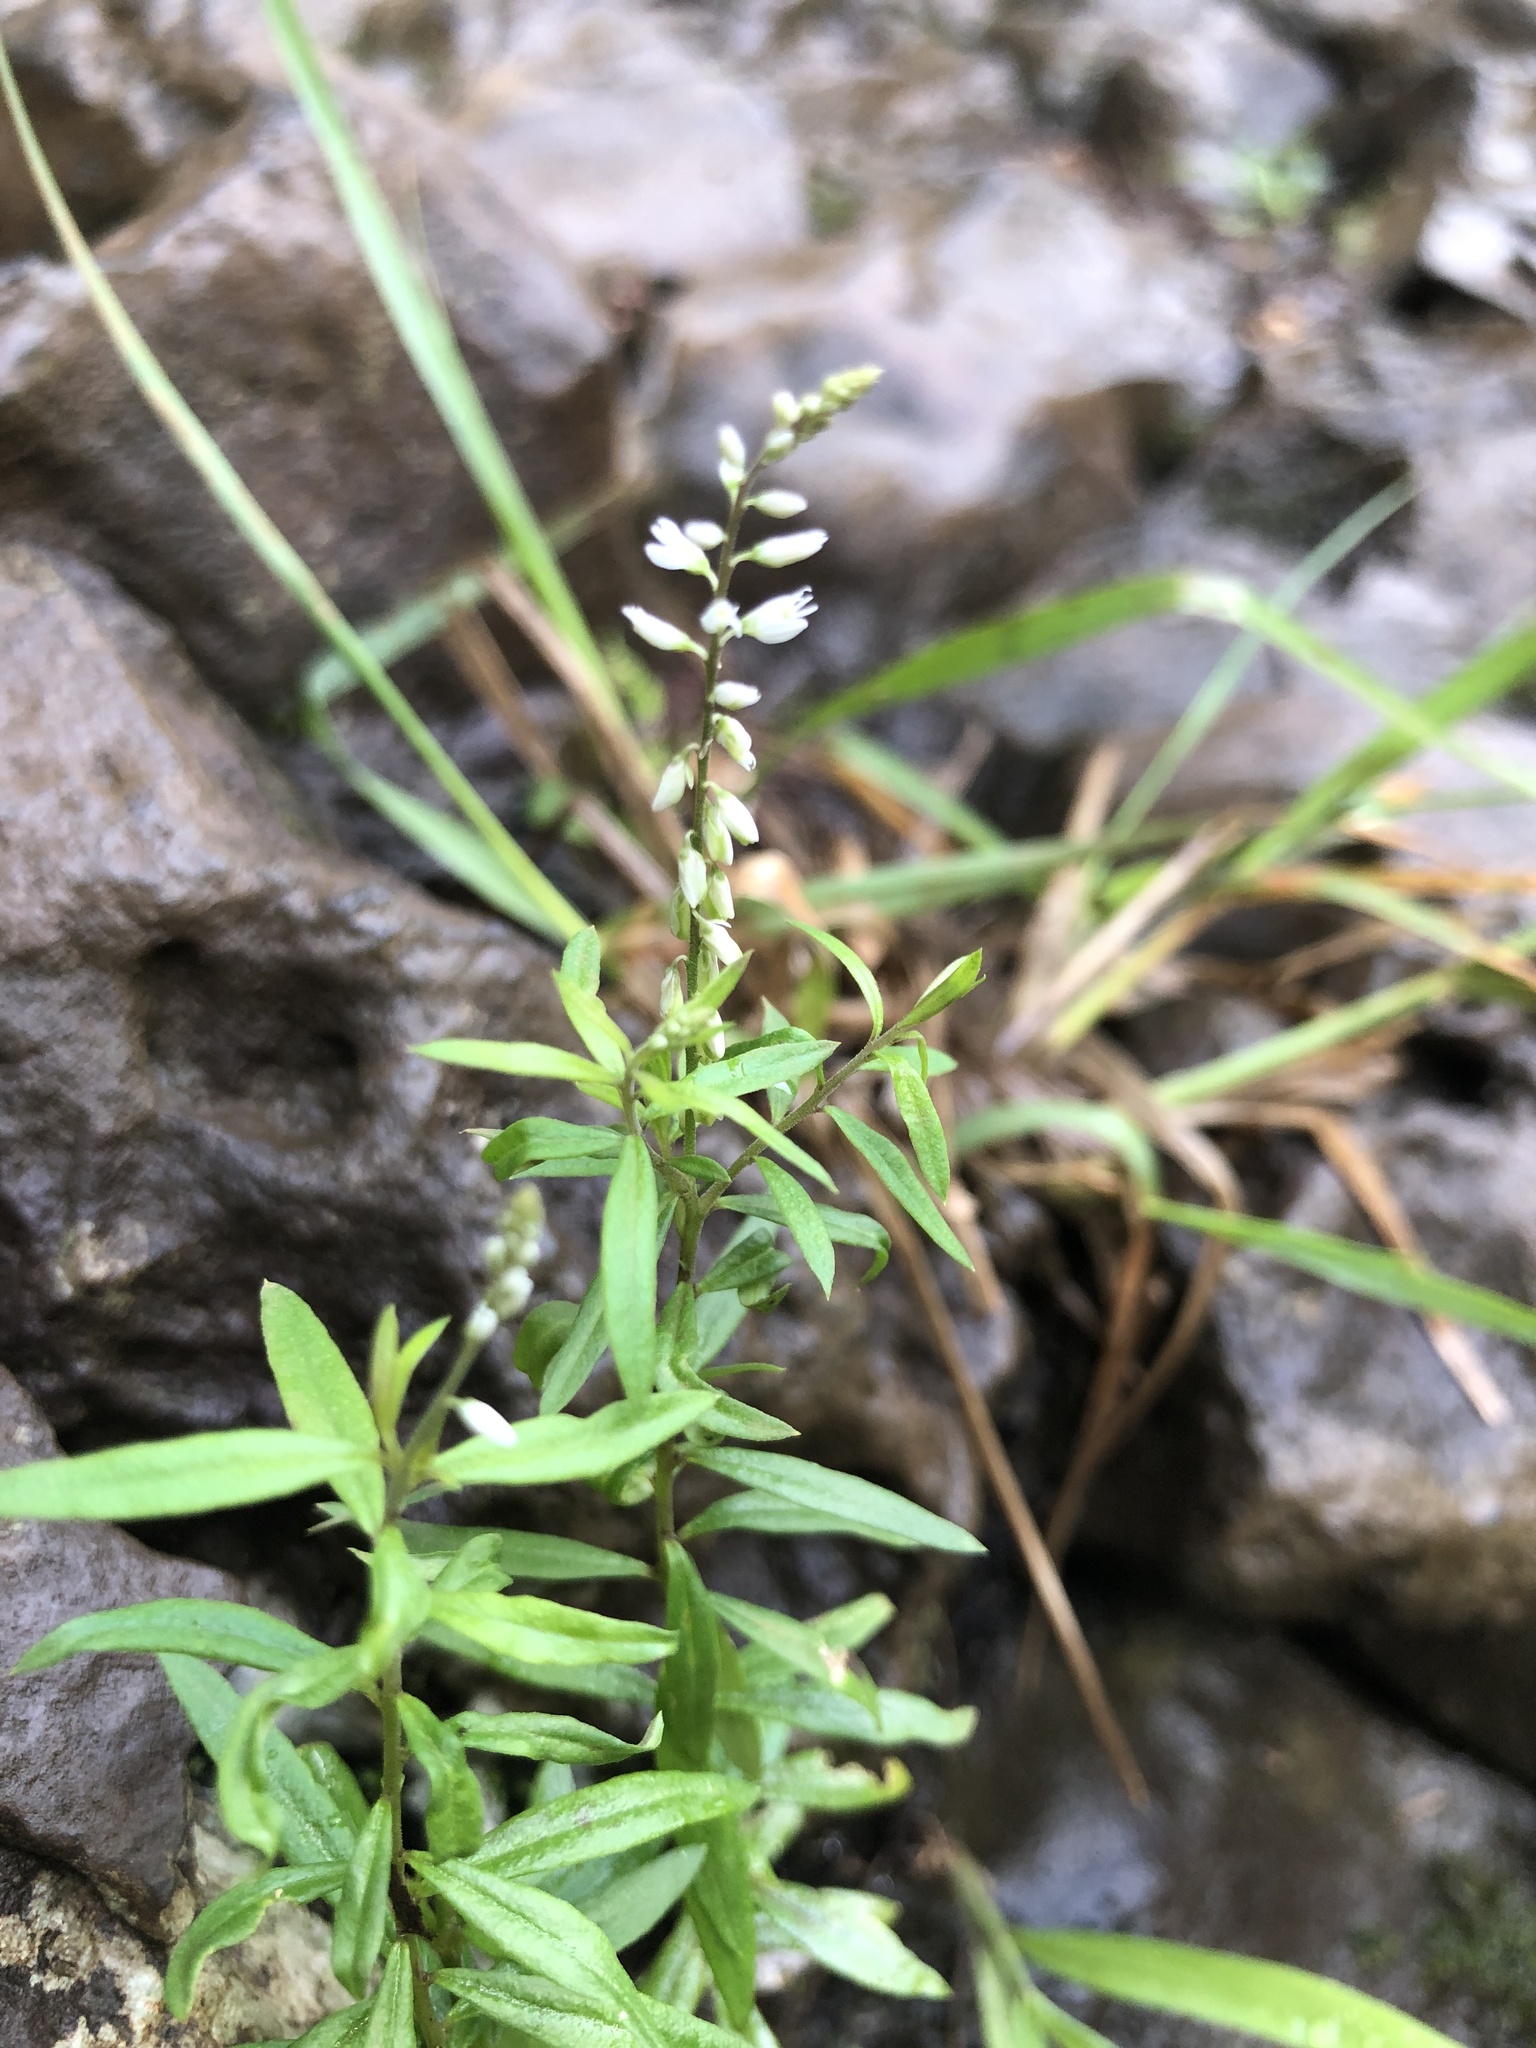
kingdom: Plantae
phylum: Tracheophyta
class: Magnoliopsida
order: Fabales
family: Polygalaceae
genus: Polygala
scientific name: Polygala paniculata
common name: Orosne
